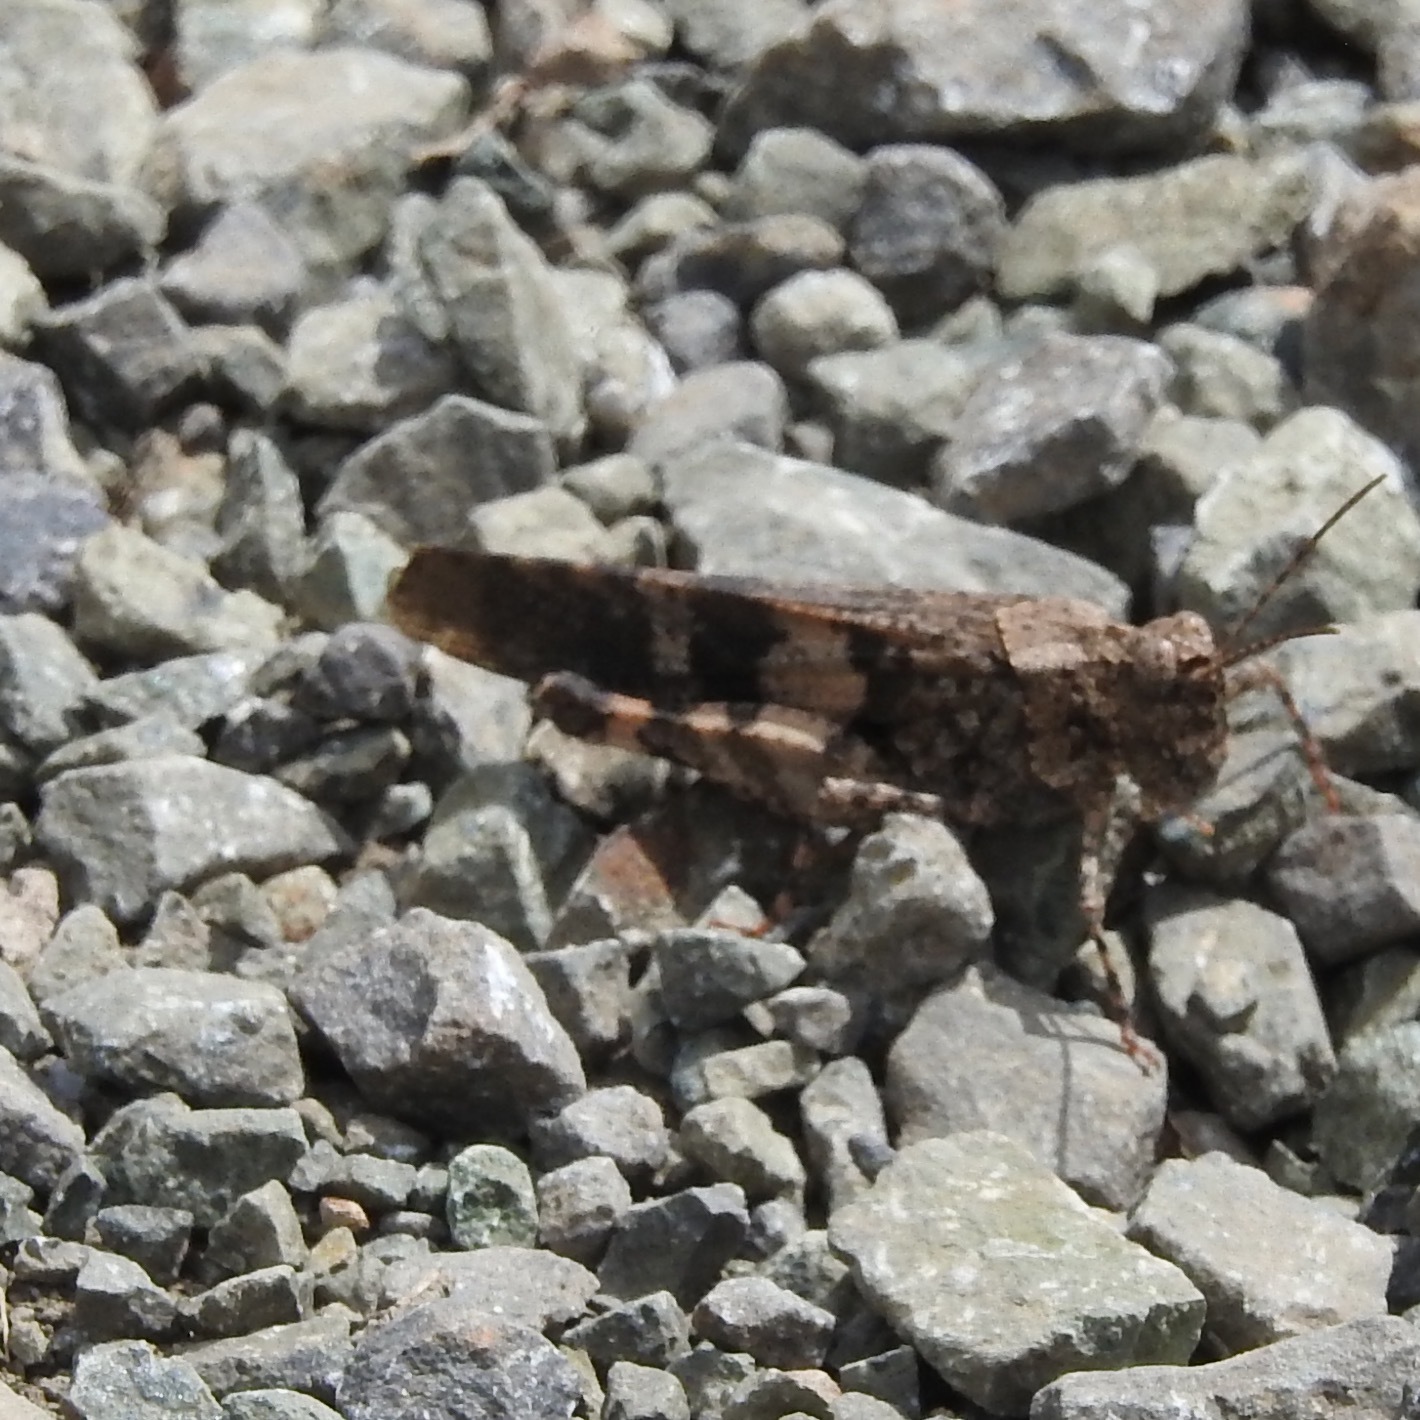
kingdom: Animalia
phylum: Arthropoda
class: Insecta
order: Orthoptera
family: Acrididae
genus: Trimerotropis
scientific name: Trimerotropis fontana
